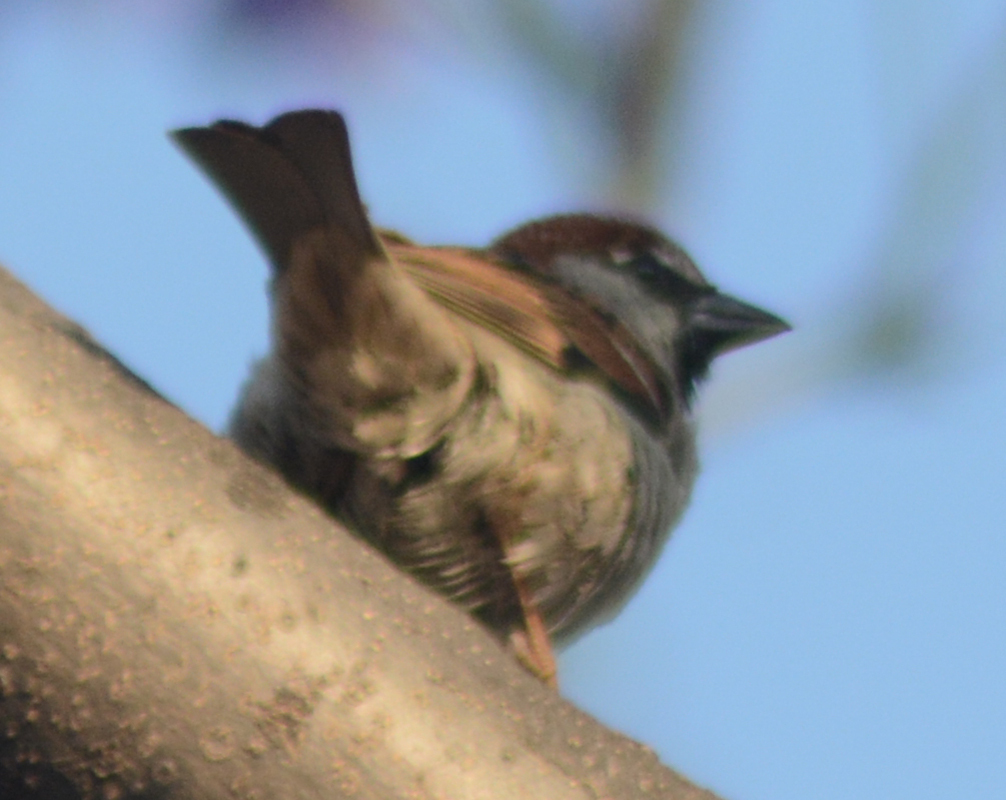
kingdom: Animalia
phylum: Chordata
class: Aves
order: Passeriformes
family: Passeridae
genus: Passer
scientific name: Passer domesticus
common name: House sparrow
